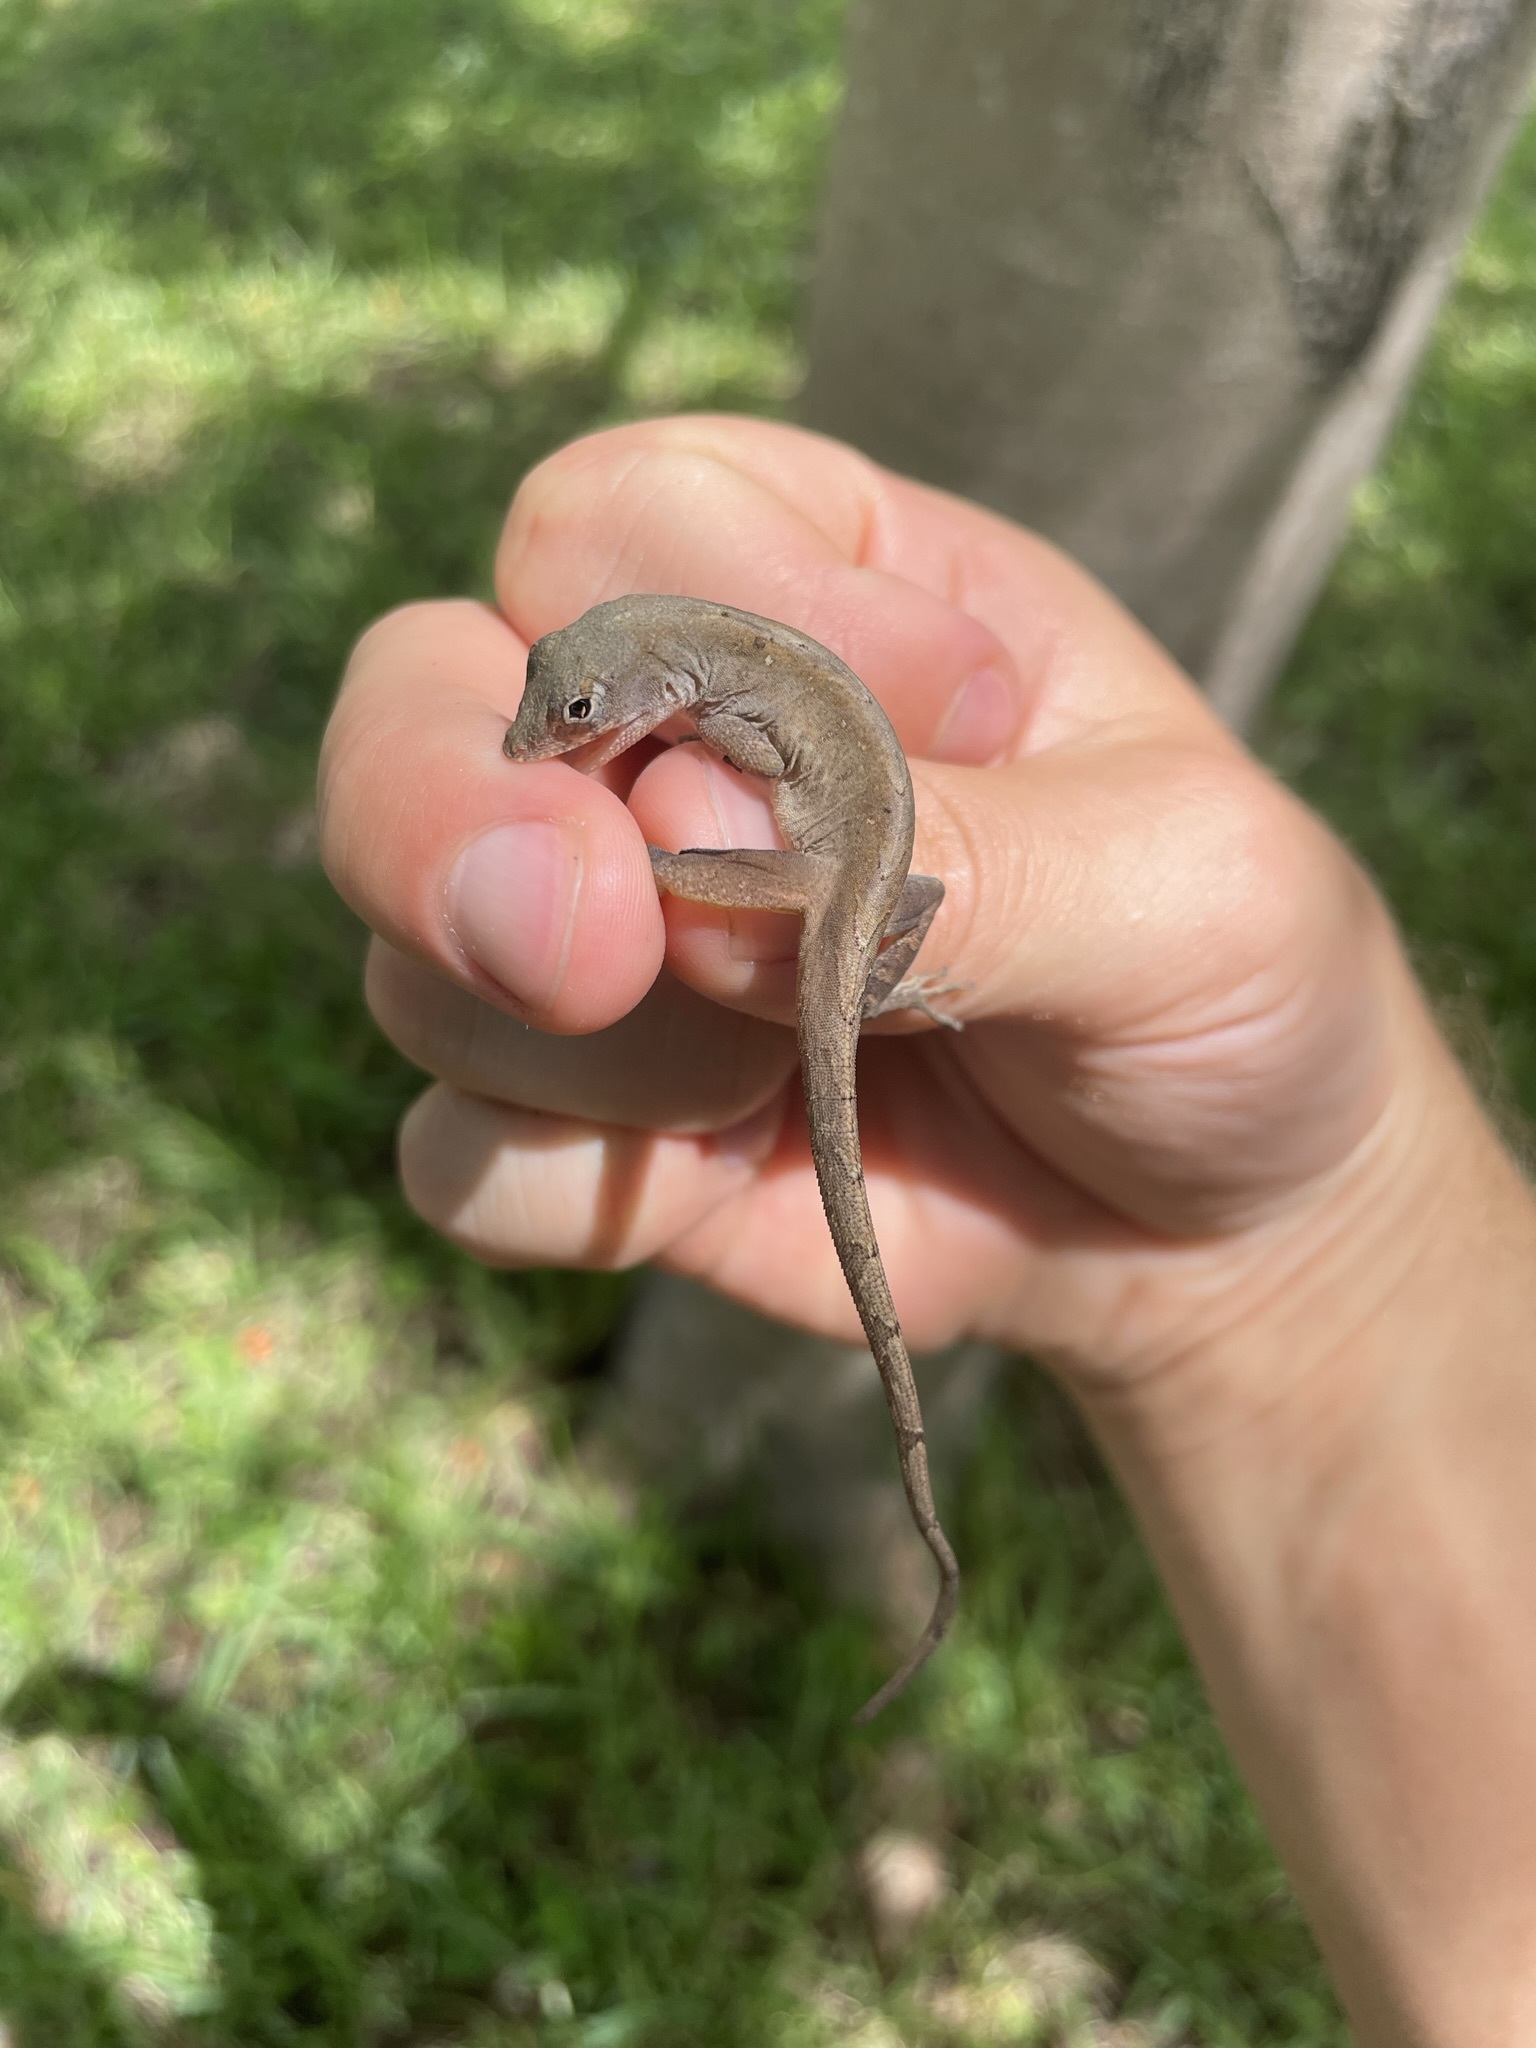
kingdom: Animalia
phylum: Chordata
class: Squamata
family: Dactyloidae
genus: Anolis
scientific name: Anolis sagrei
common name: Brown anole
